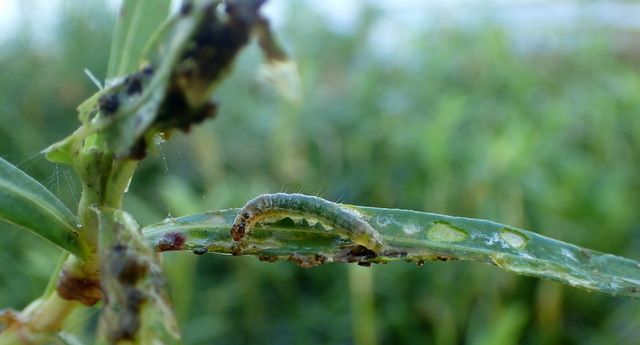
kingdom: Animalia
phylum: Arthropoda
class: Insecta
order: Lepidoptera
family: Crambidae
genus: Herpetogramma
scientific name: Herpetogramma bipunctalis
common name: Southern beet webworm
